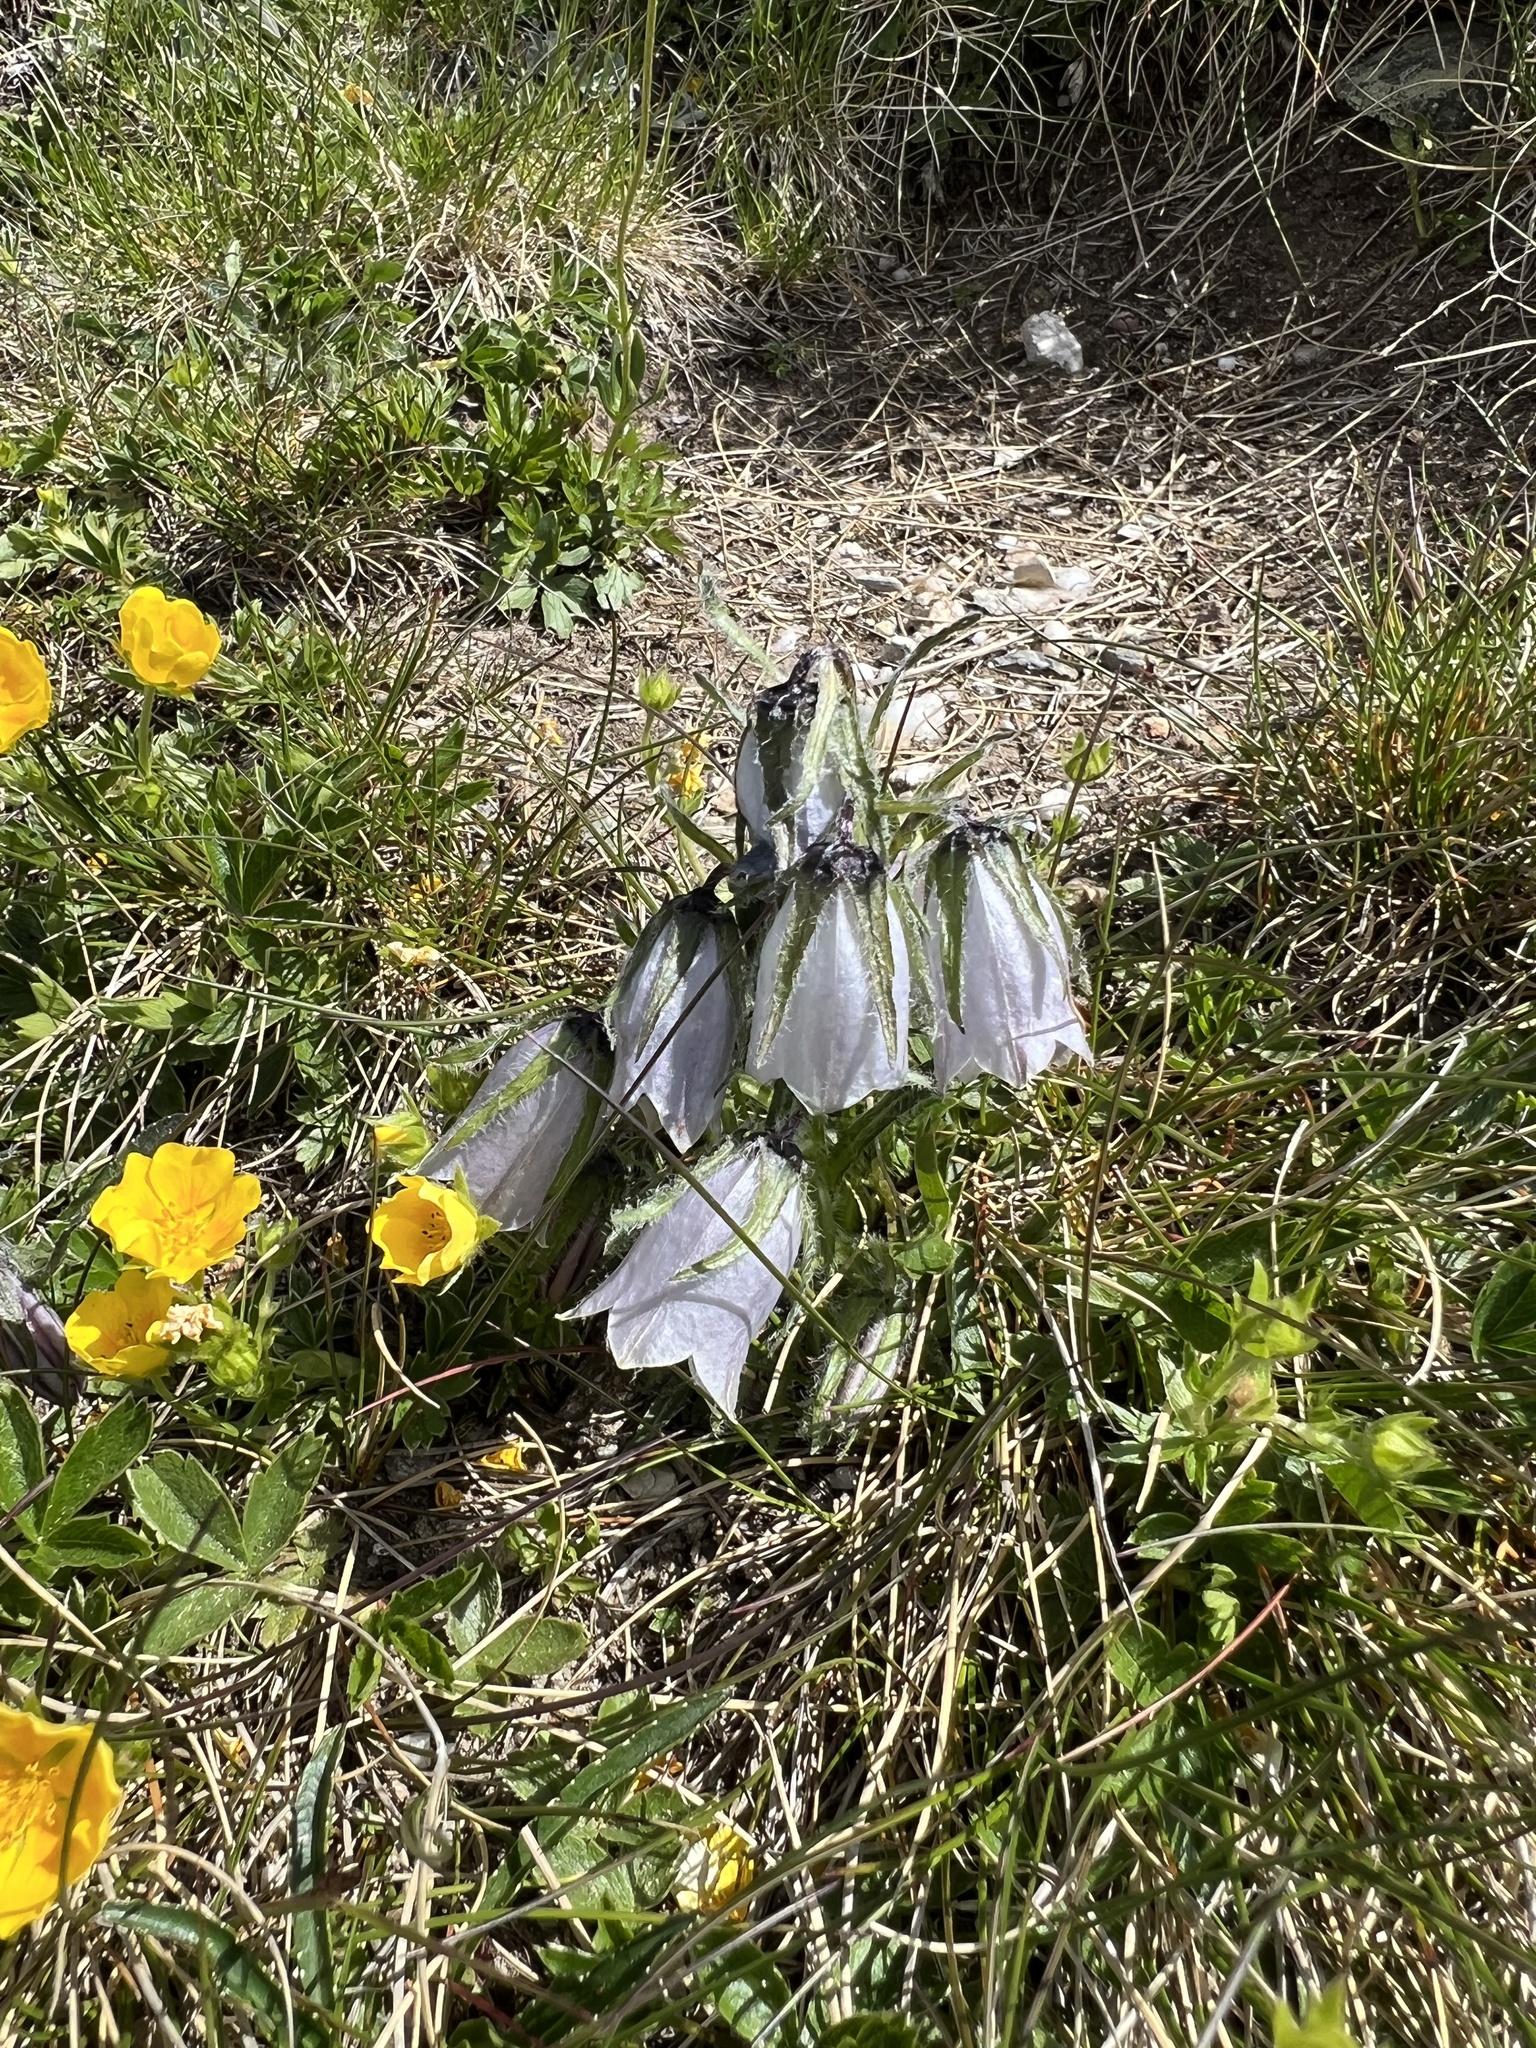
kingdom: Plantae
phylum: Tracheophyta
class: Magnoliopsida
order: Asterales
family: Campanulaceae
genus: Campanula
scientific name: Campanula alpina
